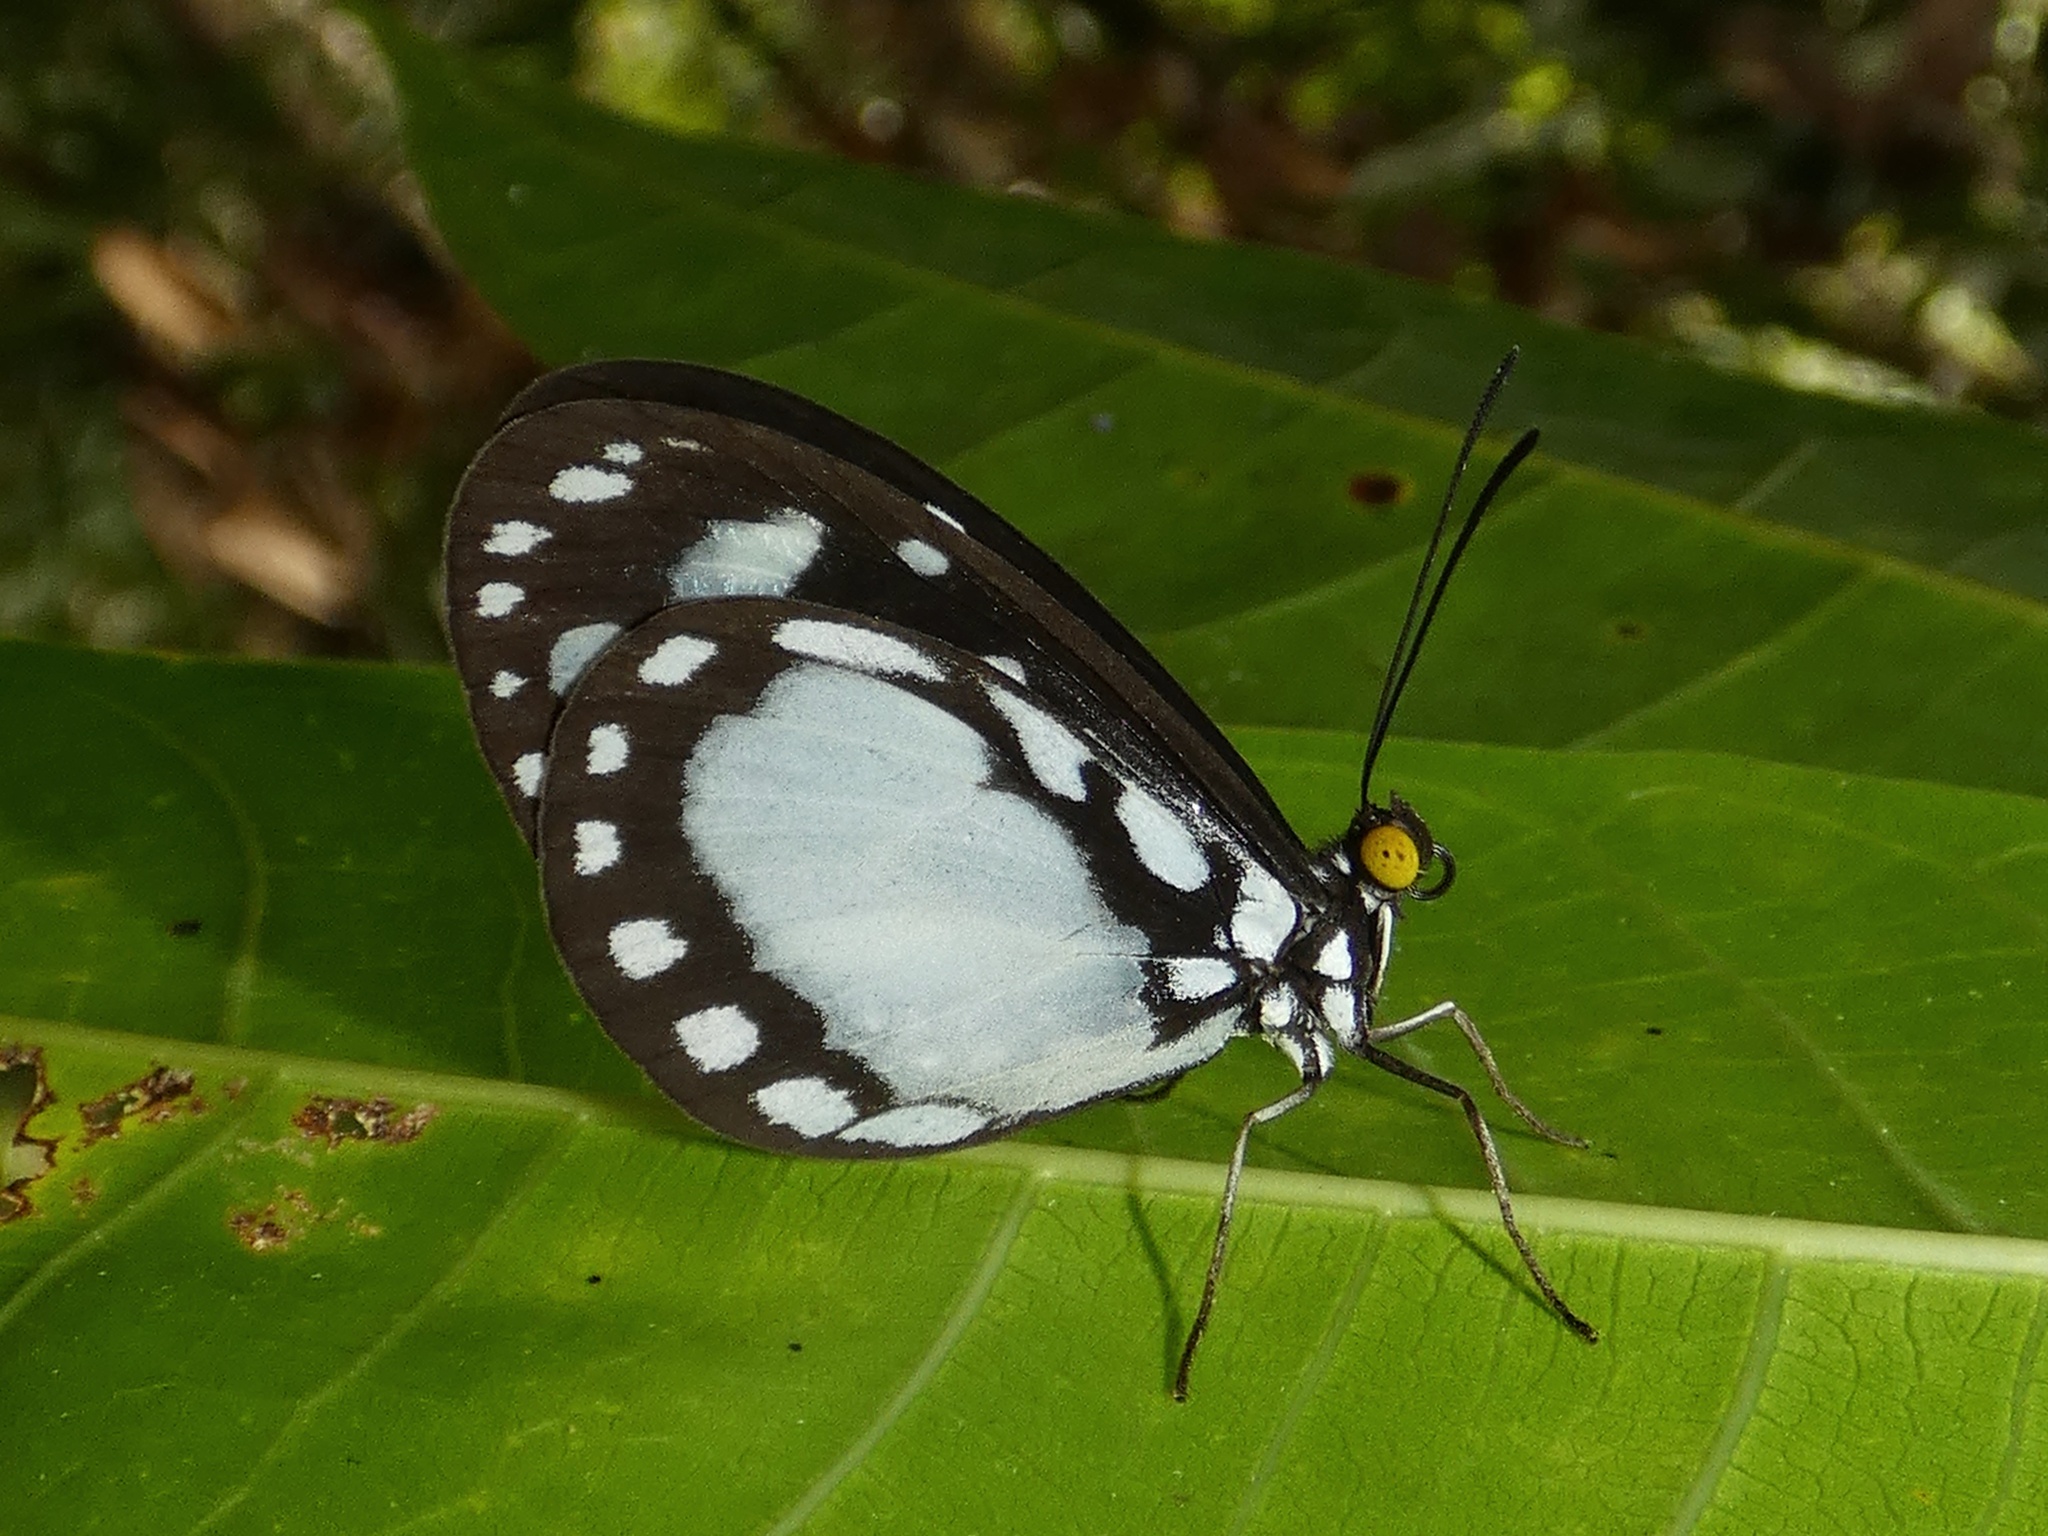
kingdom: Animalia
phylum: Arthropoda
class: Insecta
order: Lepidoptera
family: Nymphalidae
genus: Tellervo
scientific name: Tellervo zoilus
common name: Hamadryad
